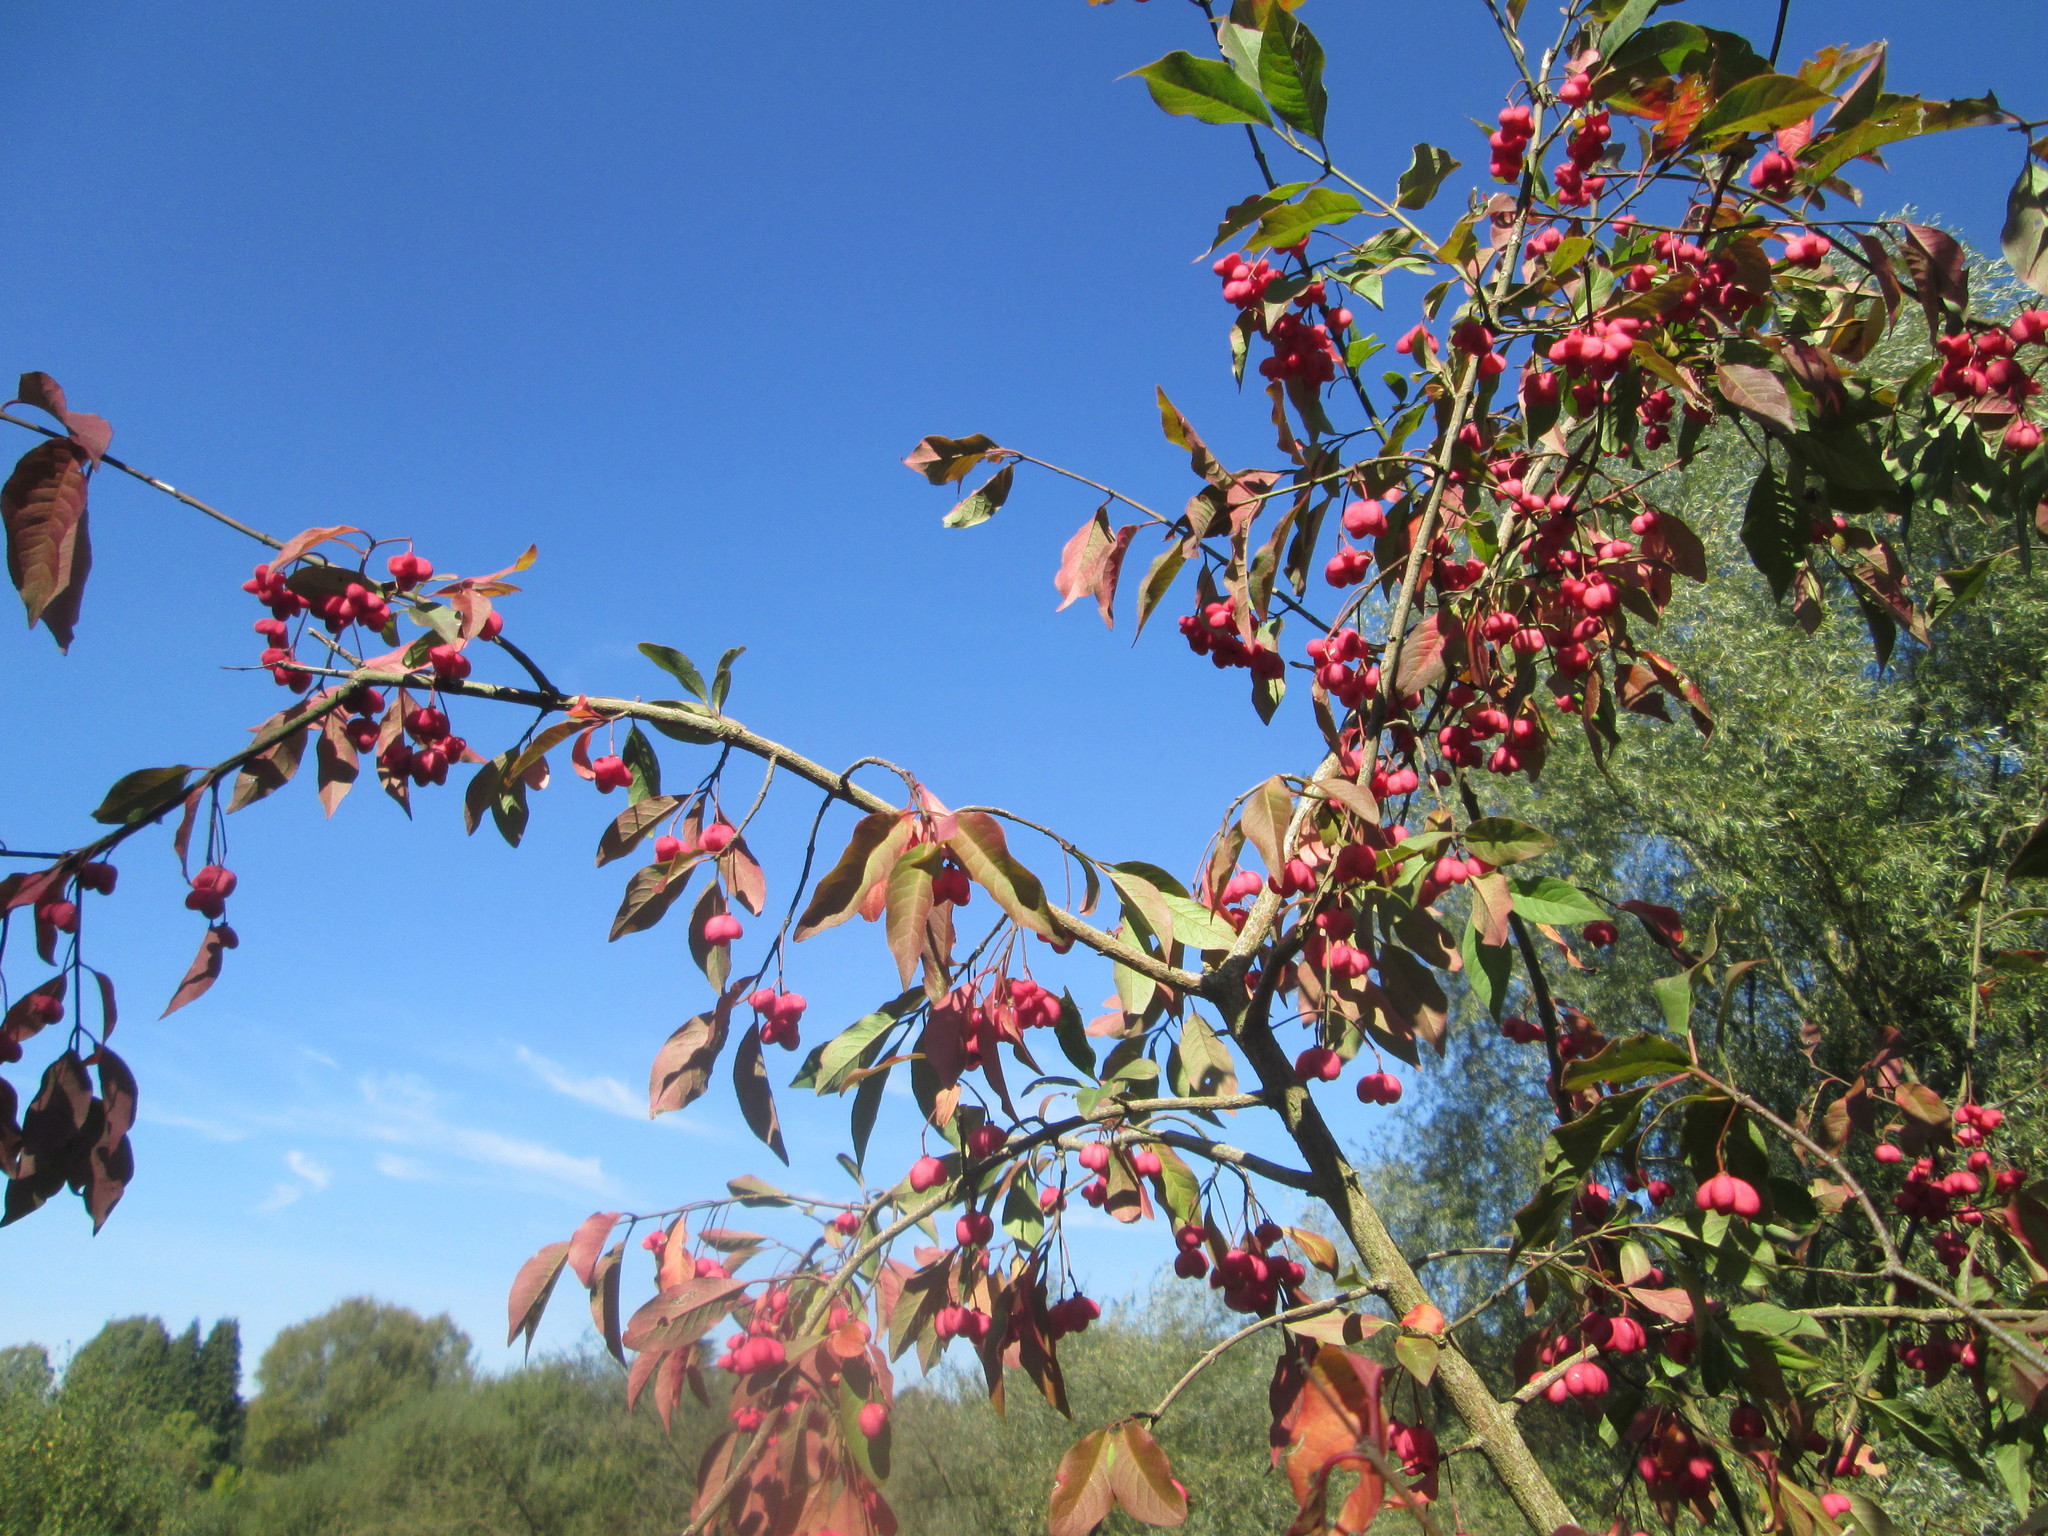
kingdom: Plantae
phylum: Tracheophyta
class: Magnoliopsida
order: Celastrales
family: Celastraceae
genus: Euonymus
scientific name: Euonymus europaeus
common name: Spindle
